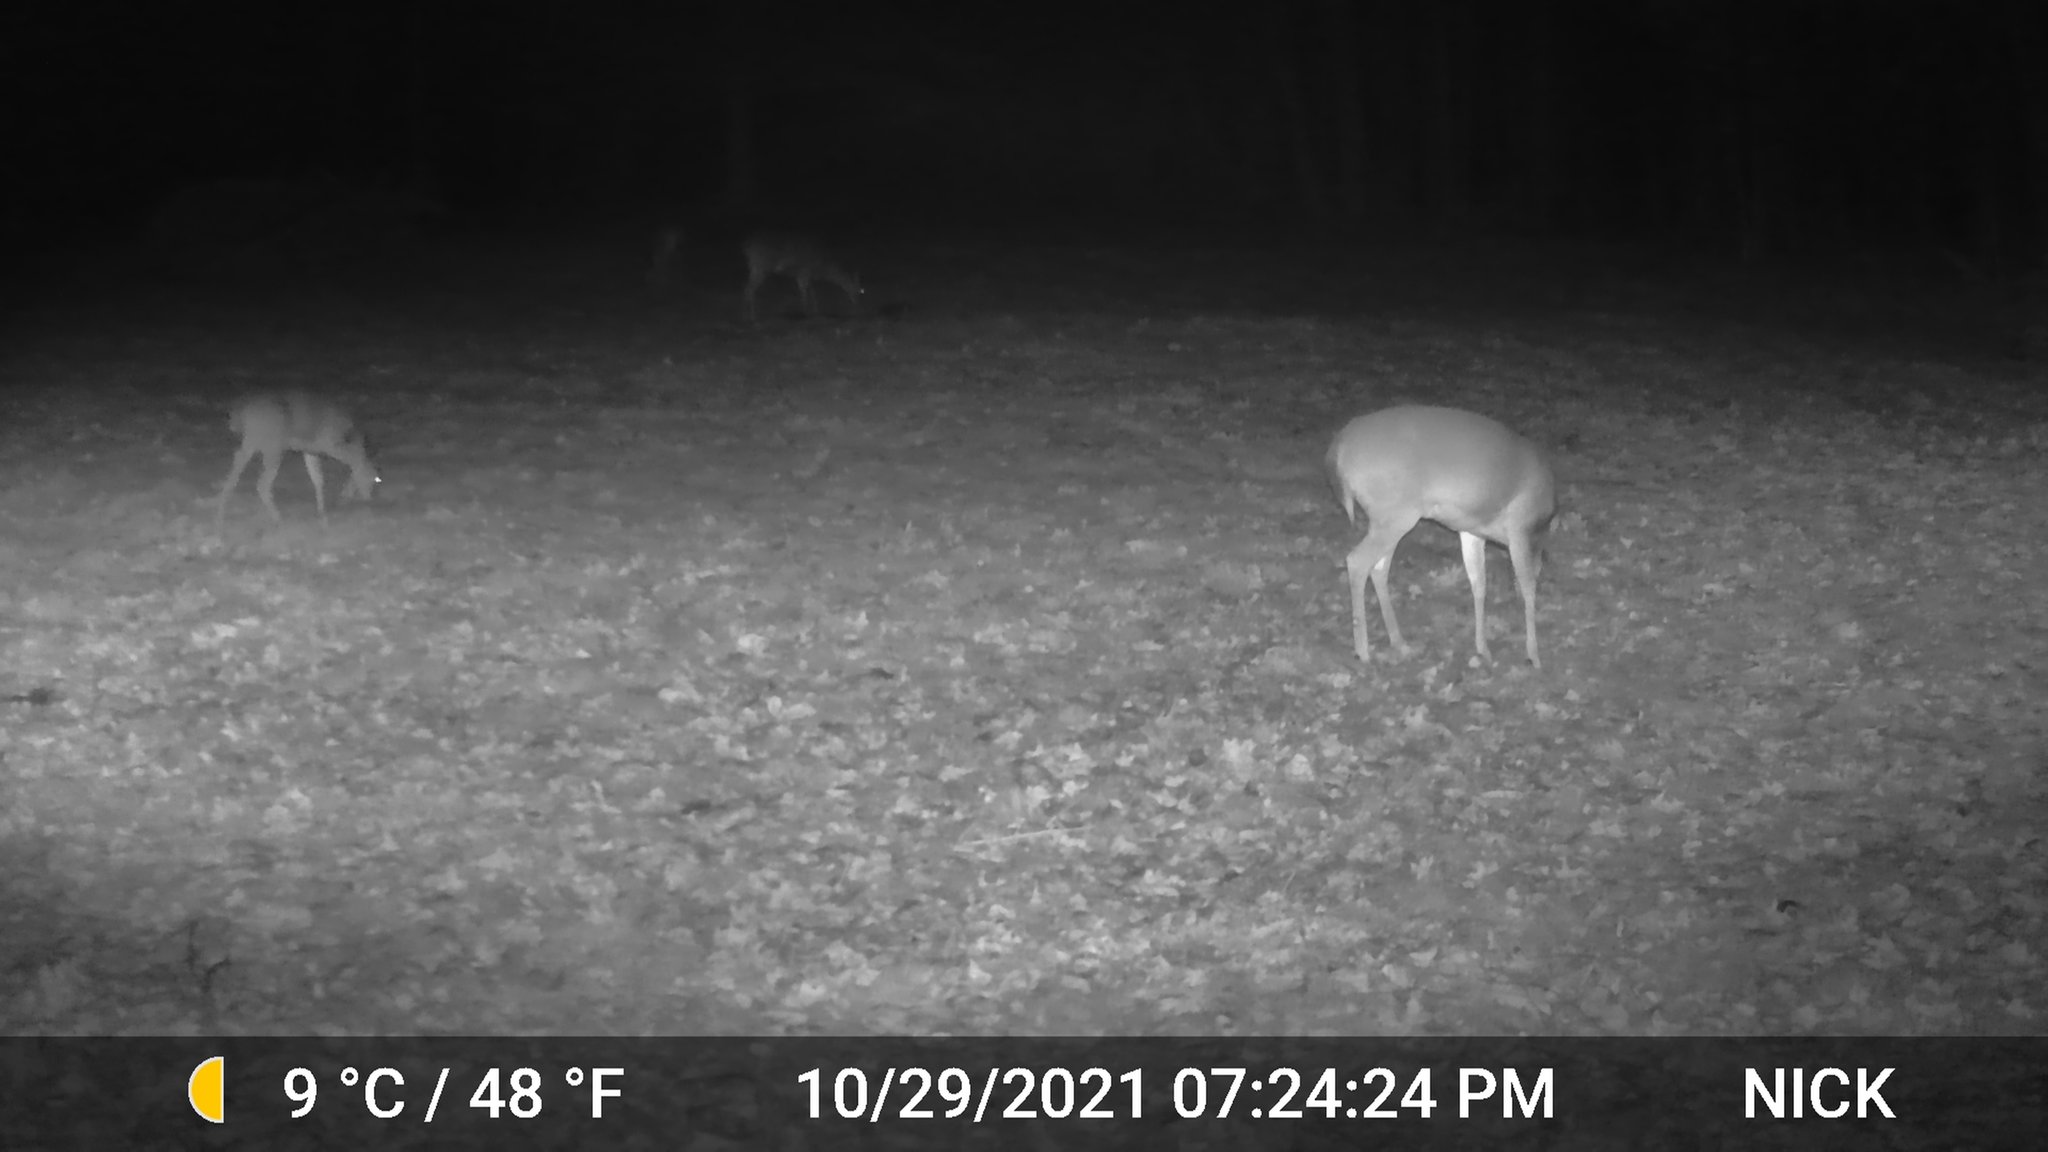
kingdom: Animalia
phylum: Chordata
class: Mammalia
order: Artiodactyla
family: Cervidae
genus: Odocoileus
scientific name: Odocoileus virginianus
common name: White-tailed deer
